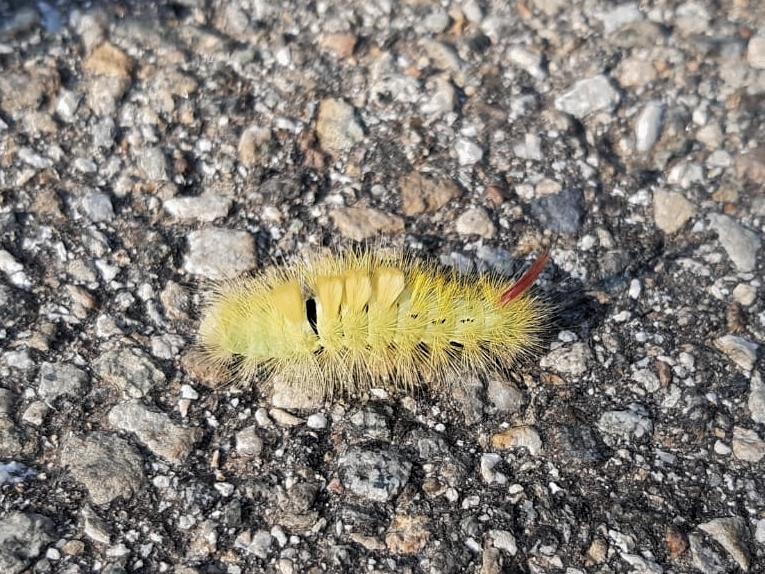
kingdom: Animalia
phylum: Arthropoda
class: Insecta
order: Lepidoptera
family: Erebidae
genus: Calliteara
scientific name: Calliteara pudibunda
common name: Pale tussock
